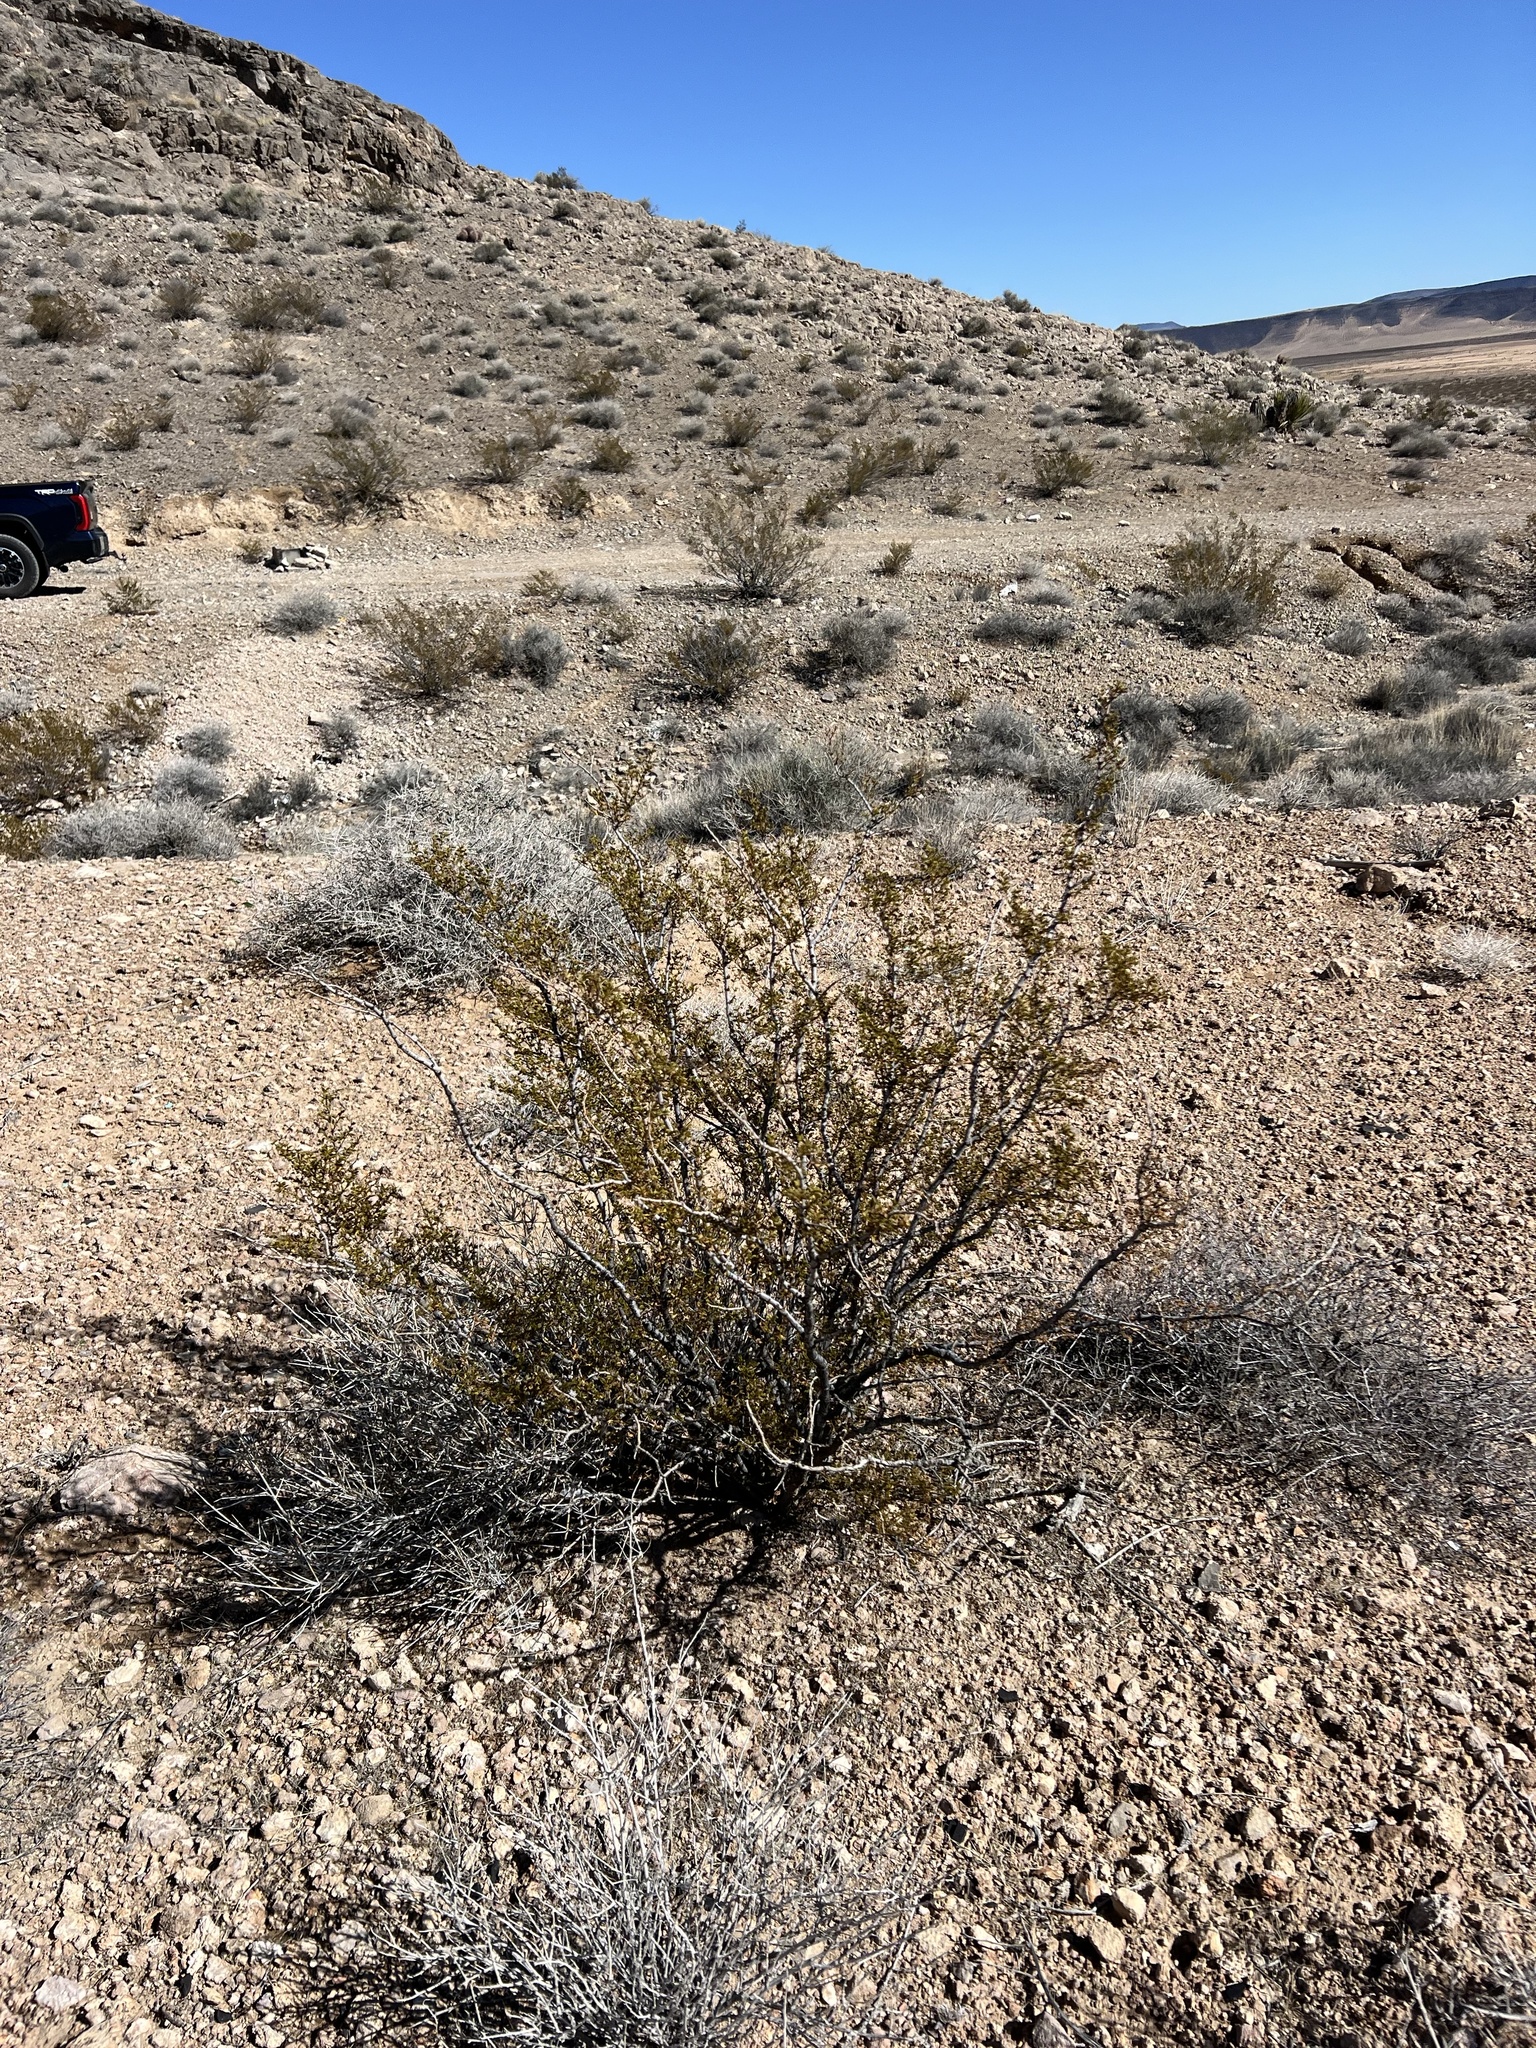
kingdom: Plantae
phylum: Tracheophyta
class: Magnoliopsida
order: Zygophyllales
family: Zygophyllaceae
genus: Larrea
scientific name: Larrea tridentata
